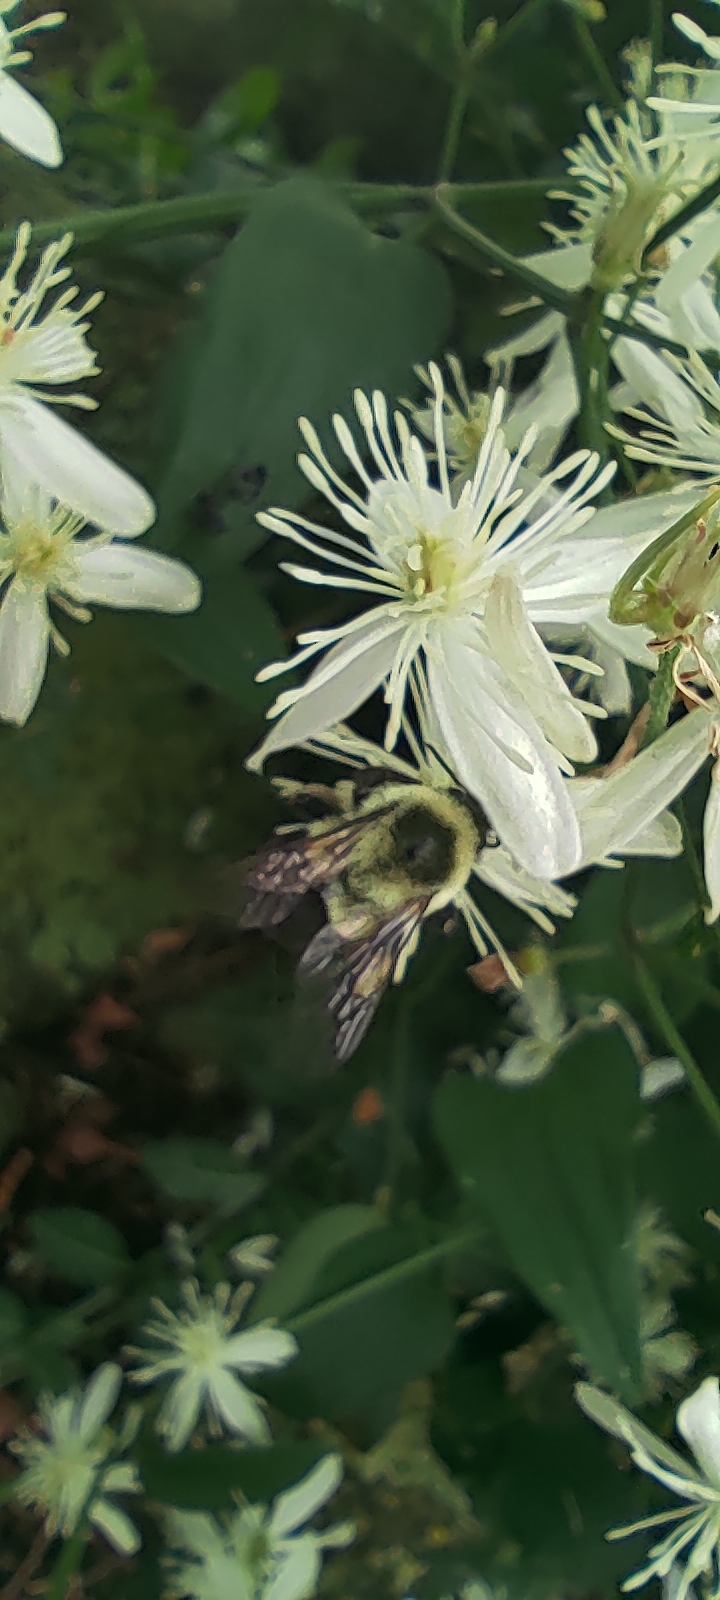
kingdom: Animalia
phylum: Arthropoda
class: Insecta
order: Hymenoptera
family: Apidae
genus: Bombus
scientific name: Bombus impatiens
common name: Common eastern bumble bee
